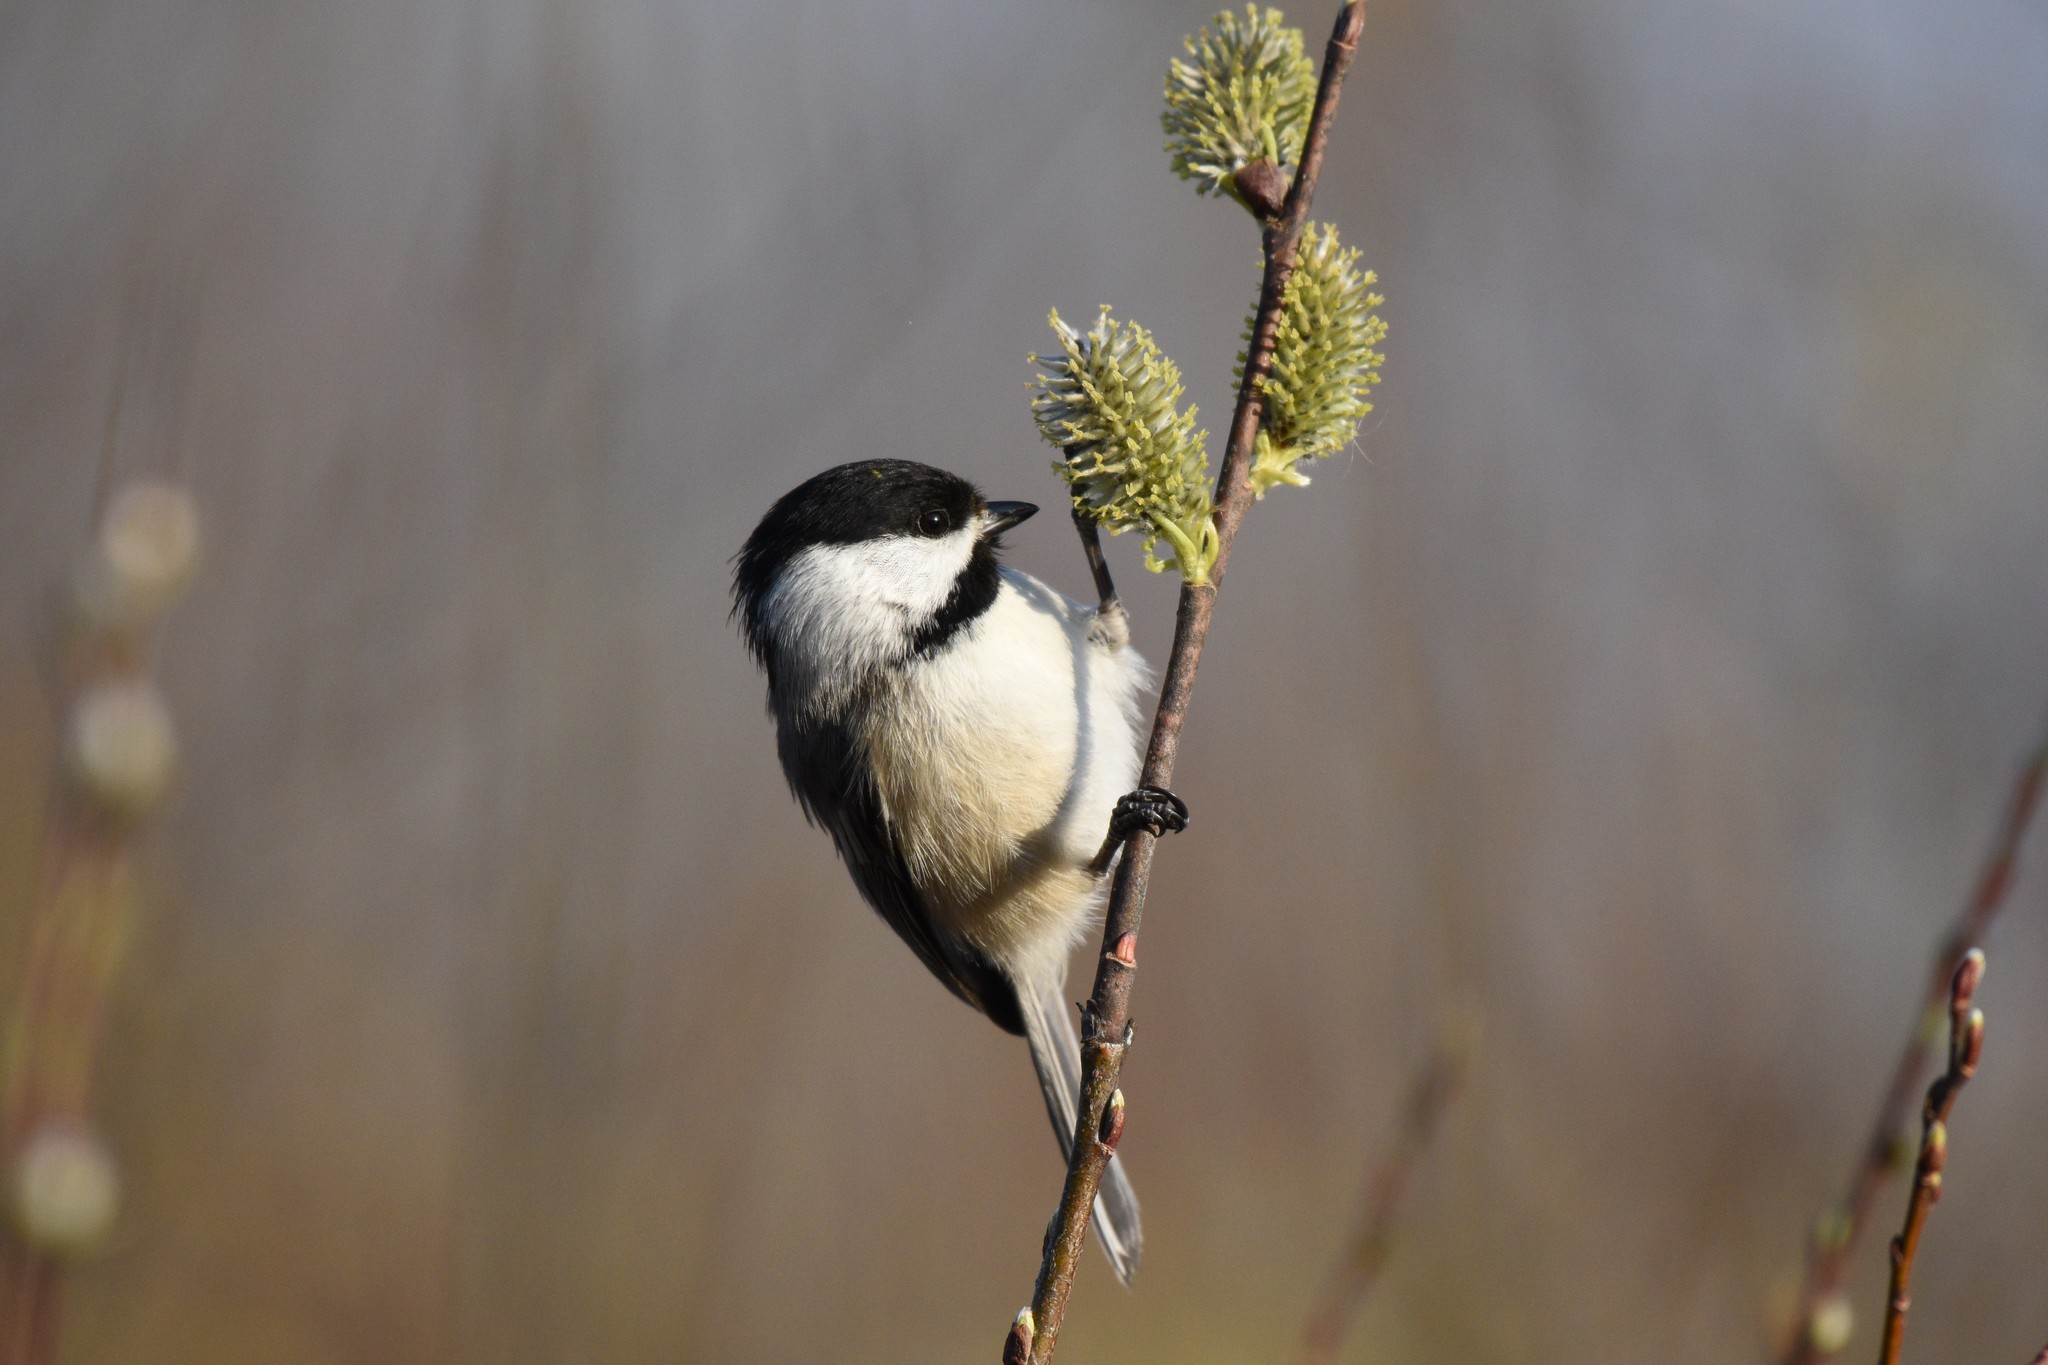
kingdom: Animalia
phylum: Chordata
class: Aves
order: Passeriformes
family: Paridae
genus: Poecile
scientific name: Poecile atricapillus
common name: Black-capped chickadee
